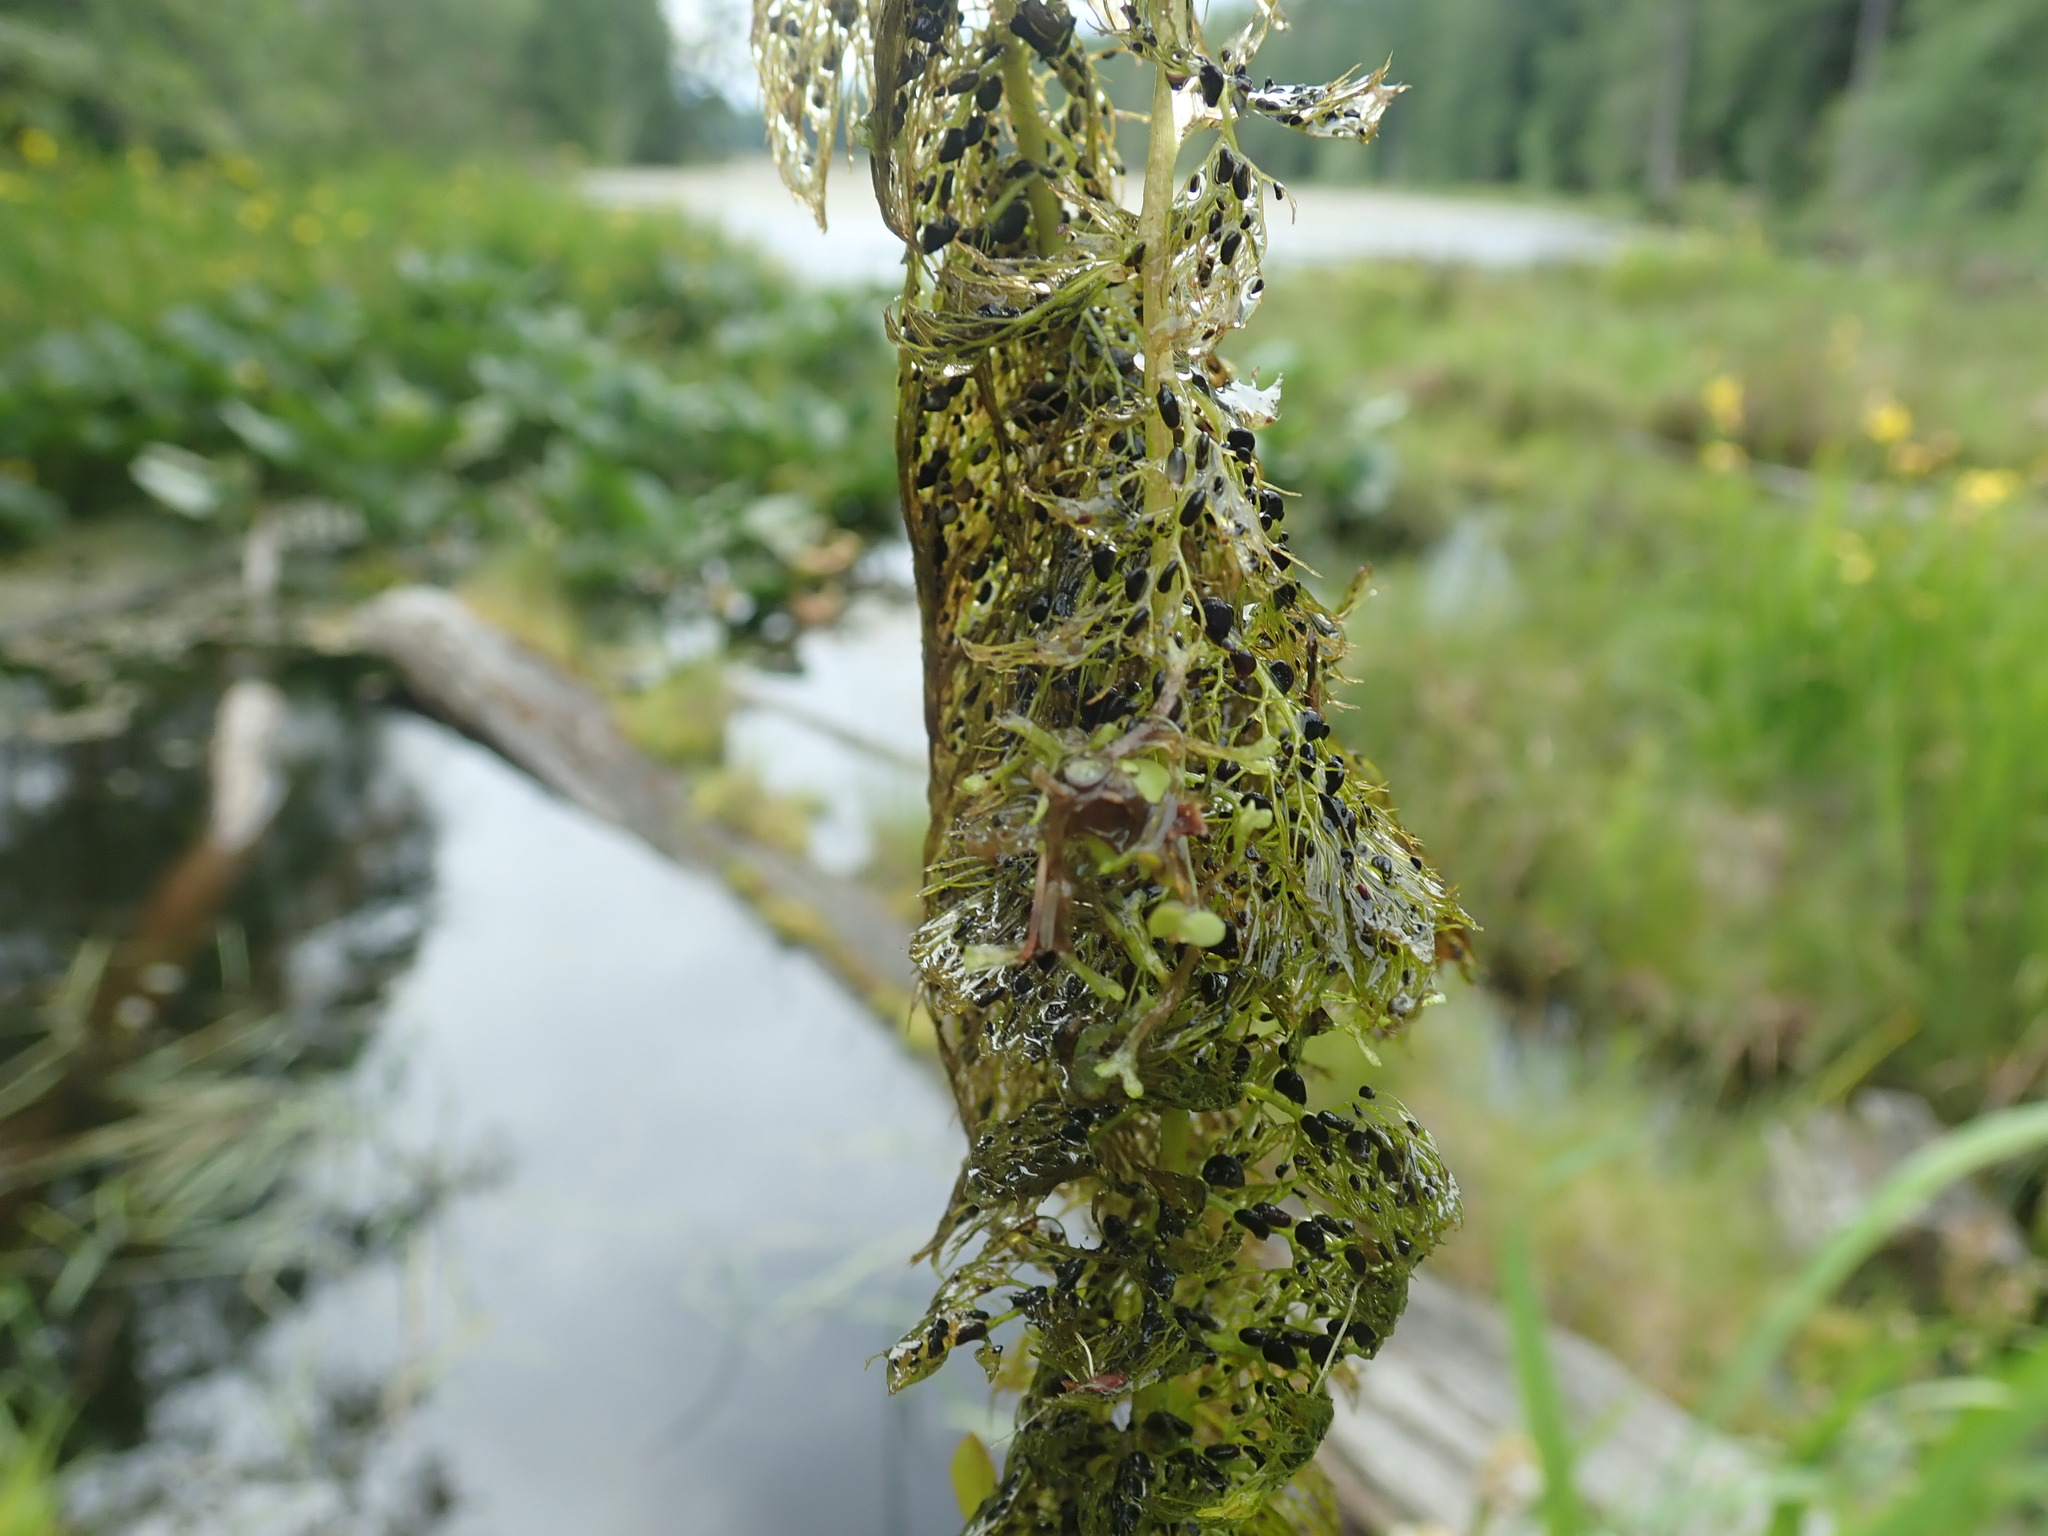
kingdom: Plantae
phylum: Tracheophyta
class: Magnoliopsida
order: Lamiales
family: Lentibulariaceae
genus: Utricularia
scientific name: Utricularia macrorhiza
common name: Common bladderwort
